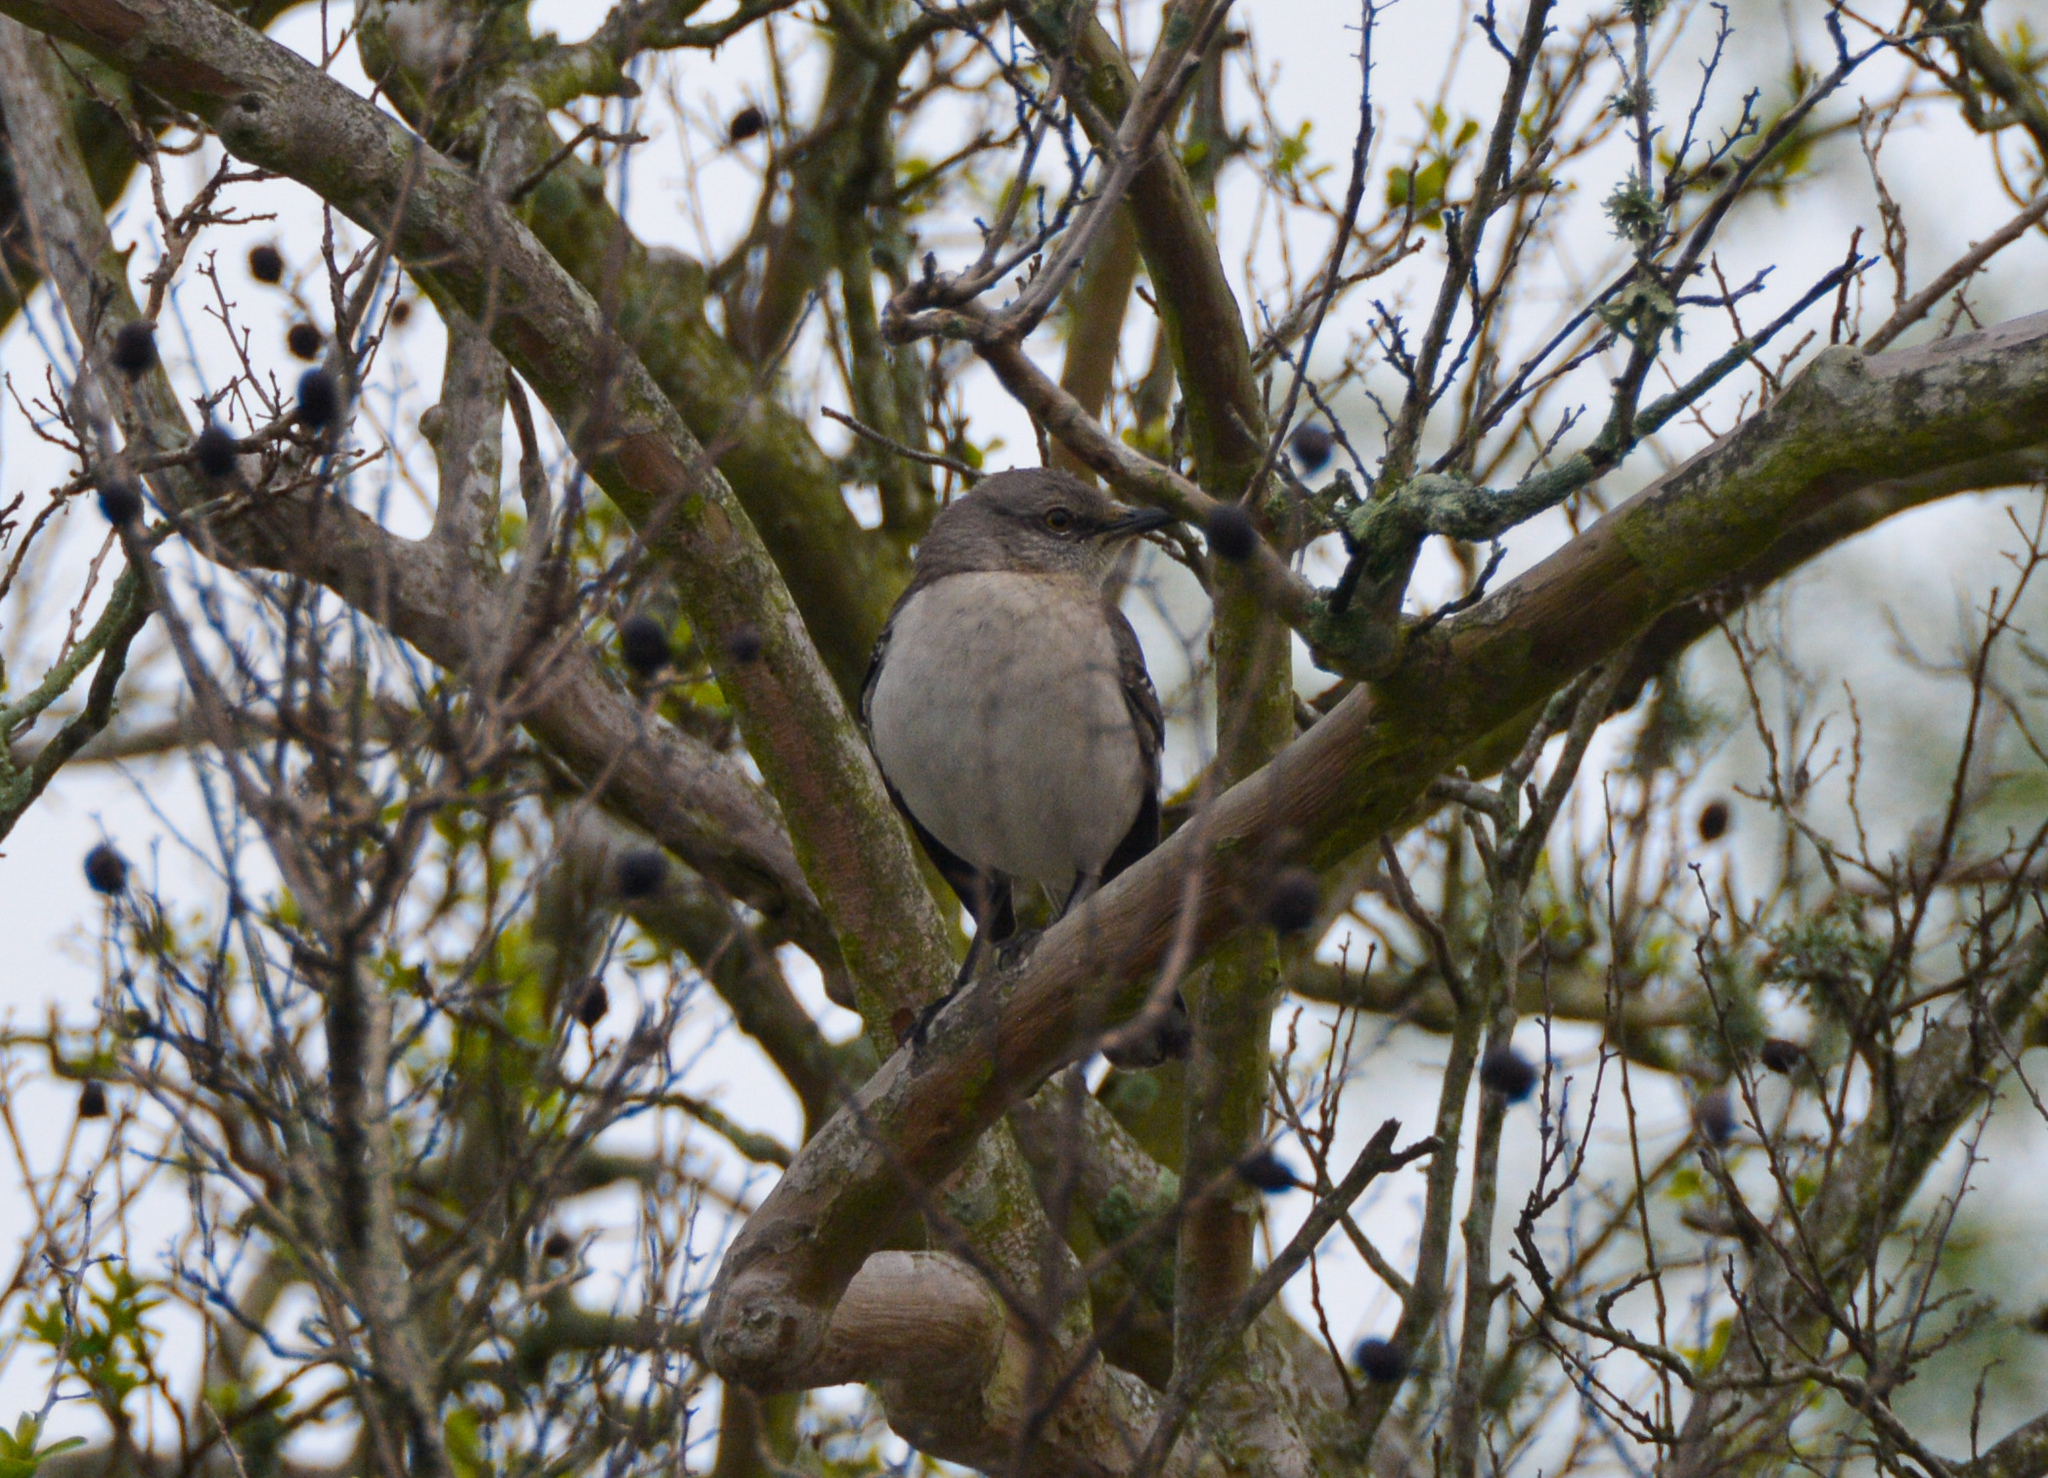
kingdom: Animalia
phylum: Chordata
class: Aves
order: Passeriformes
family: Mimidae
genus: Mimus
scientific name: Mimus polyglottos
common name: Northern mockingbird
